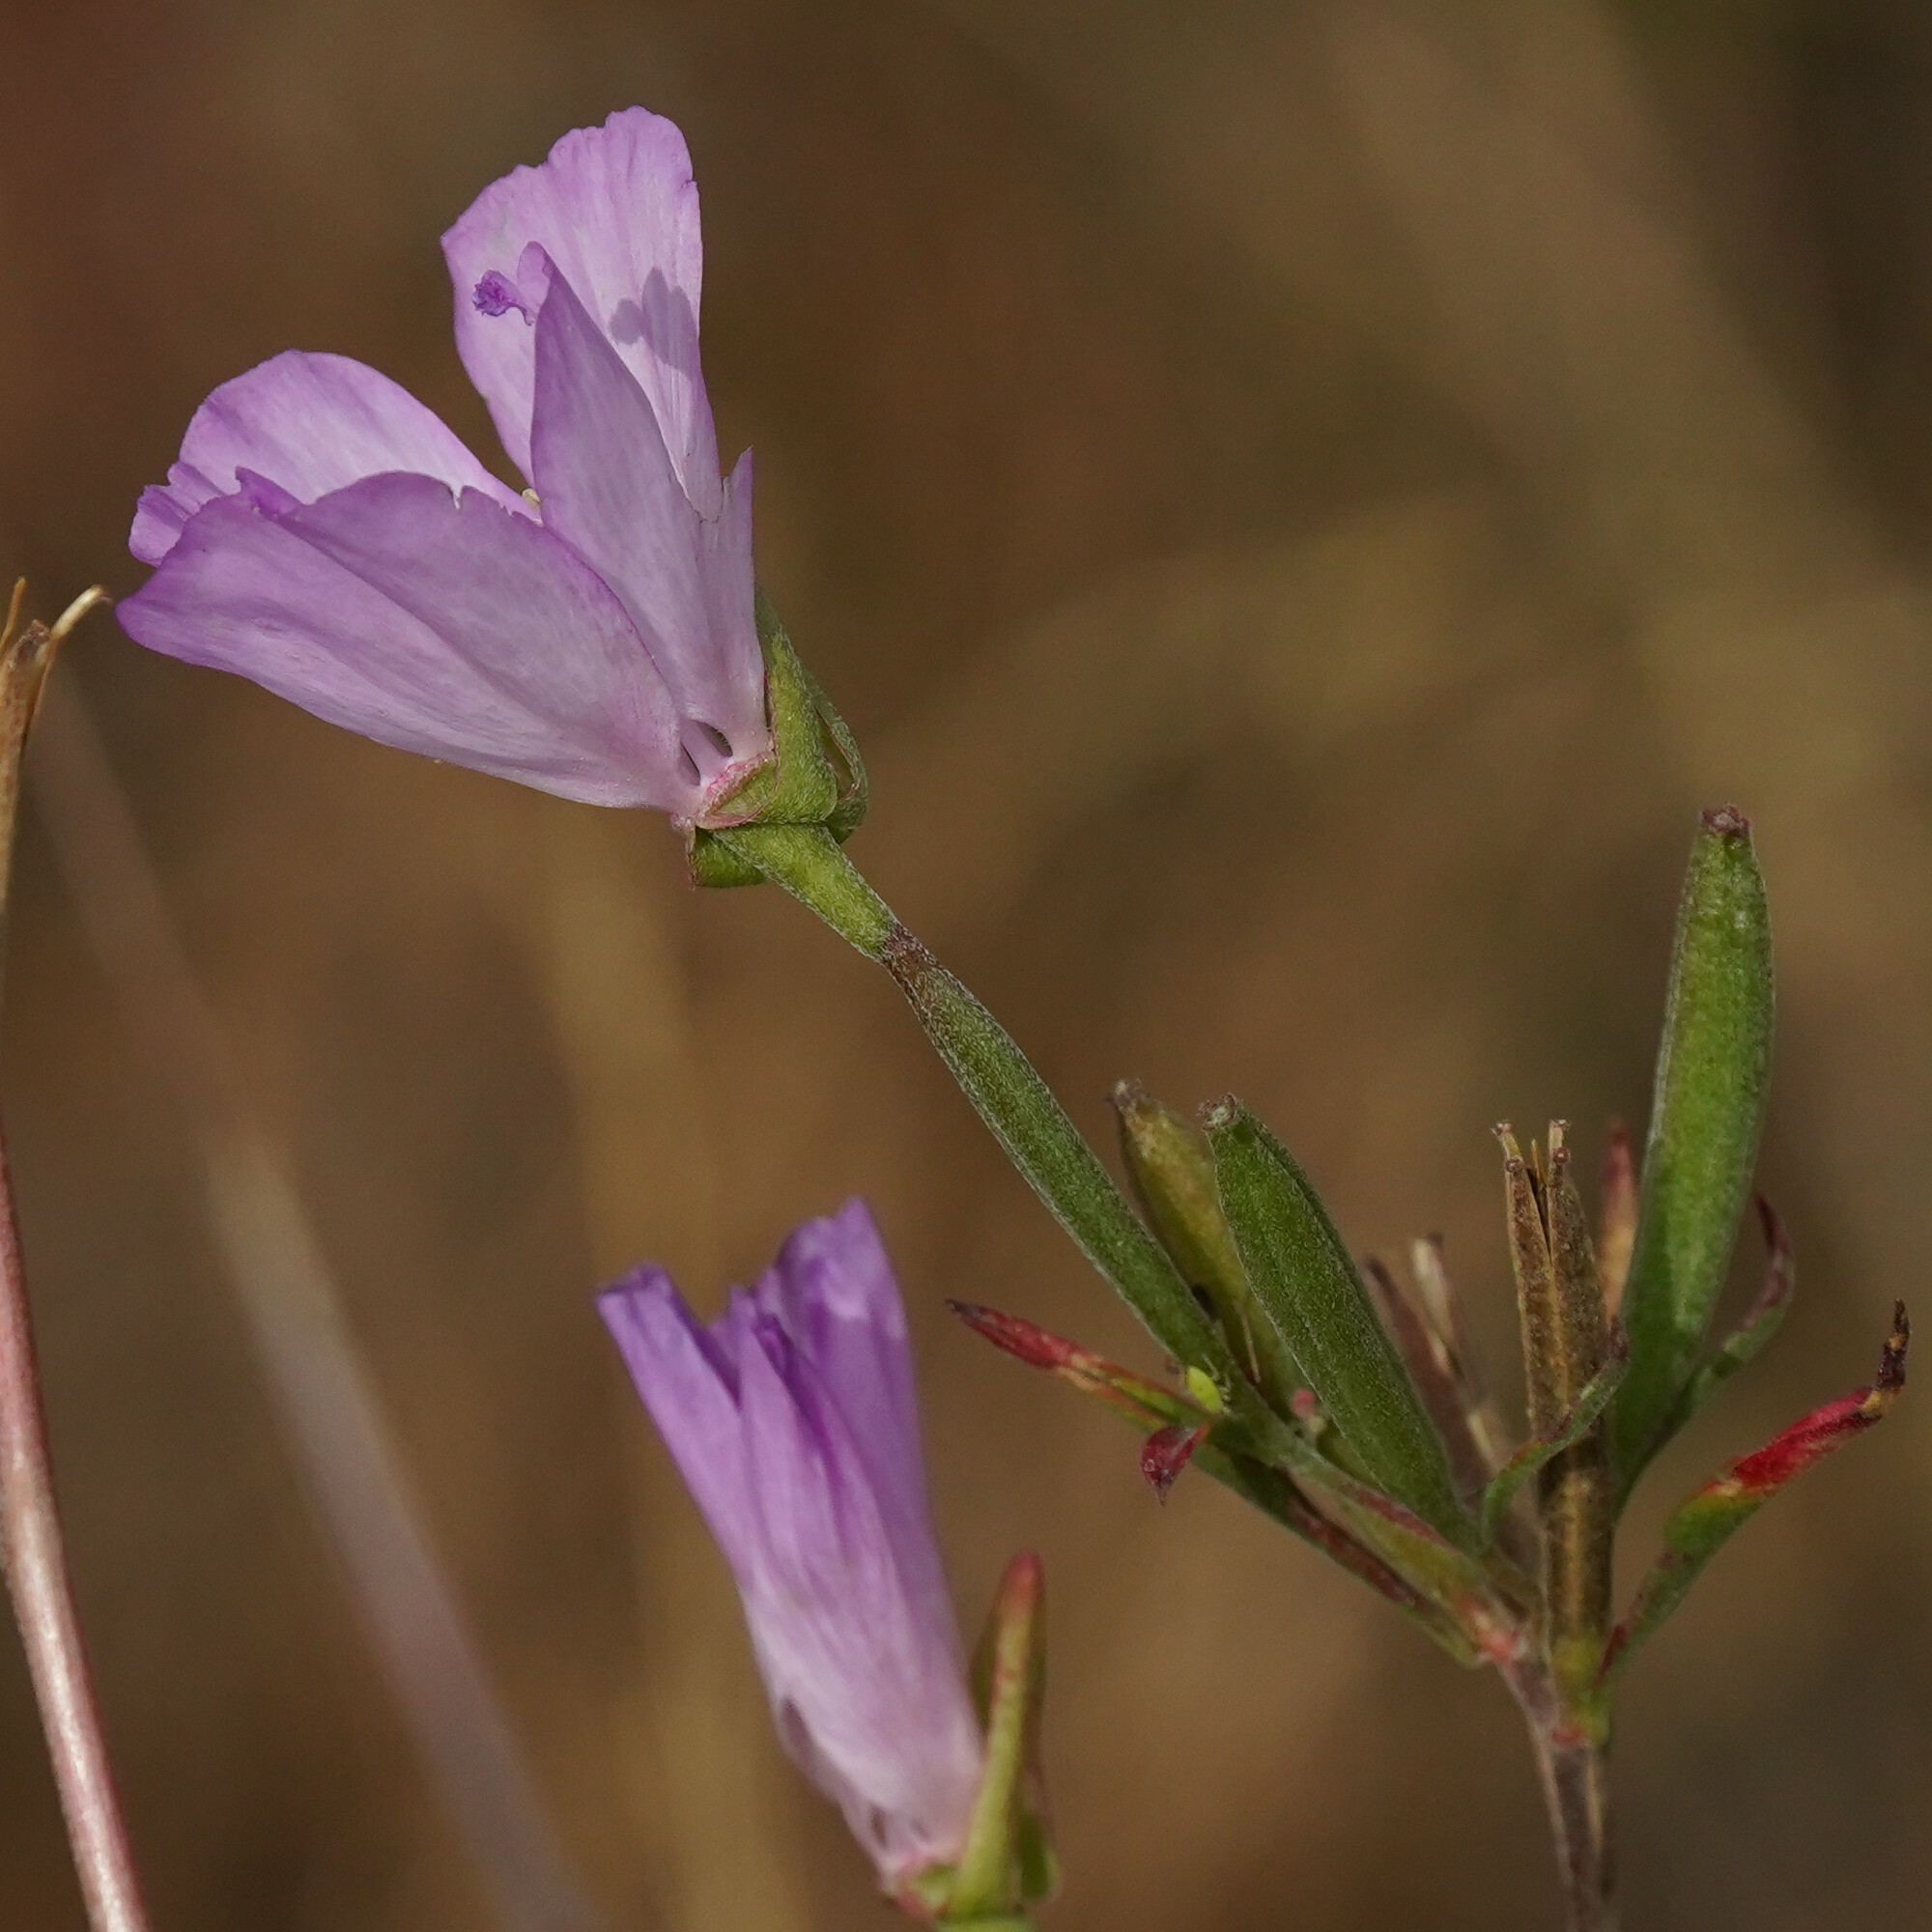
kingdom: Plantae
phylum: Tracheophyta
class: Magnoliopsida
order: Myrtales
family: Onagraceae
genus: Clarkia
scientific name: Clarkia amoena
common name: Godetia
